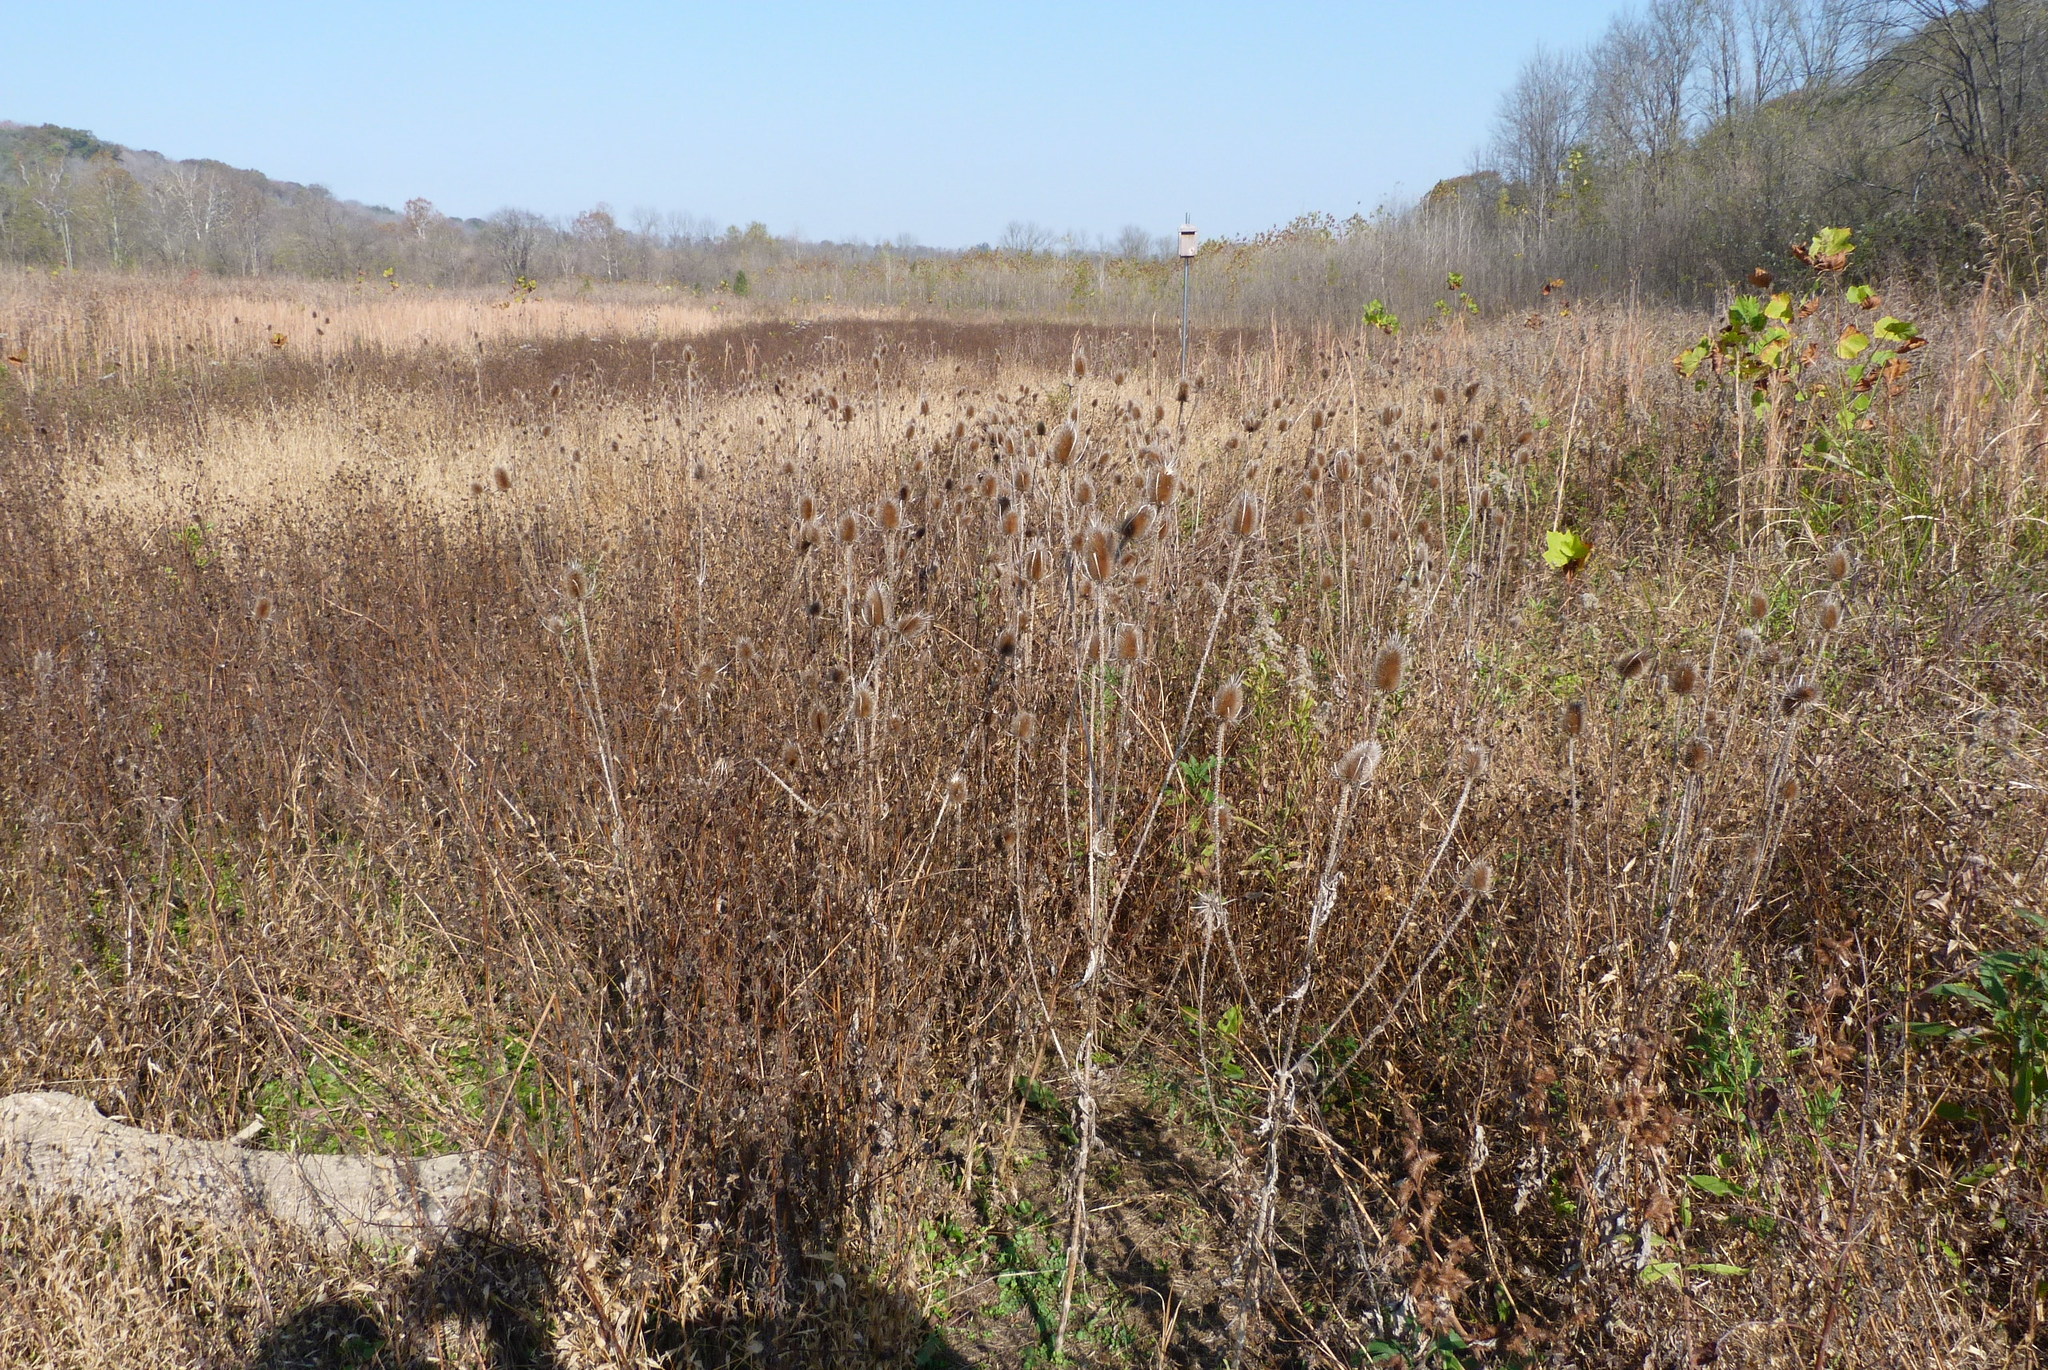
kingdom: Plantae
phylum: Tracheophyta
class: Magnoliopsida
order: Dipsacales
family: Caprifoliaceae
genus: Dipsacus
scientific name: Dipsacus fullonum
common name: Teasel
